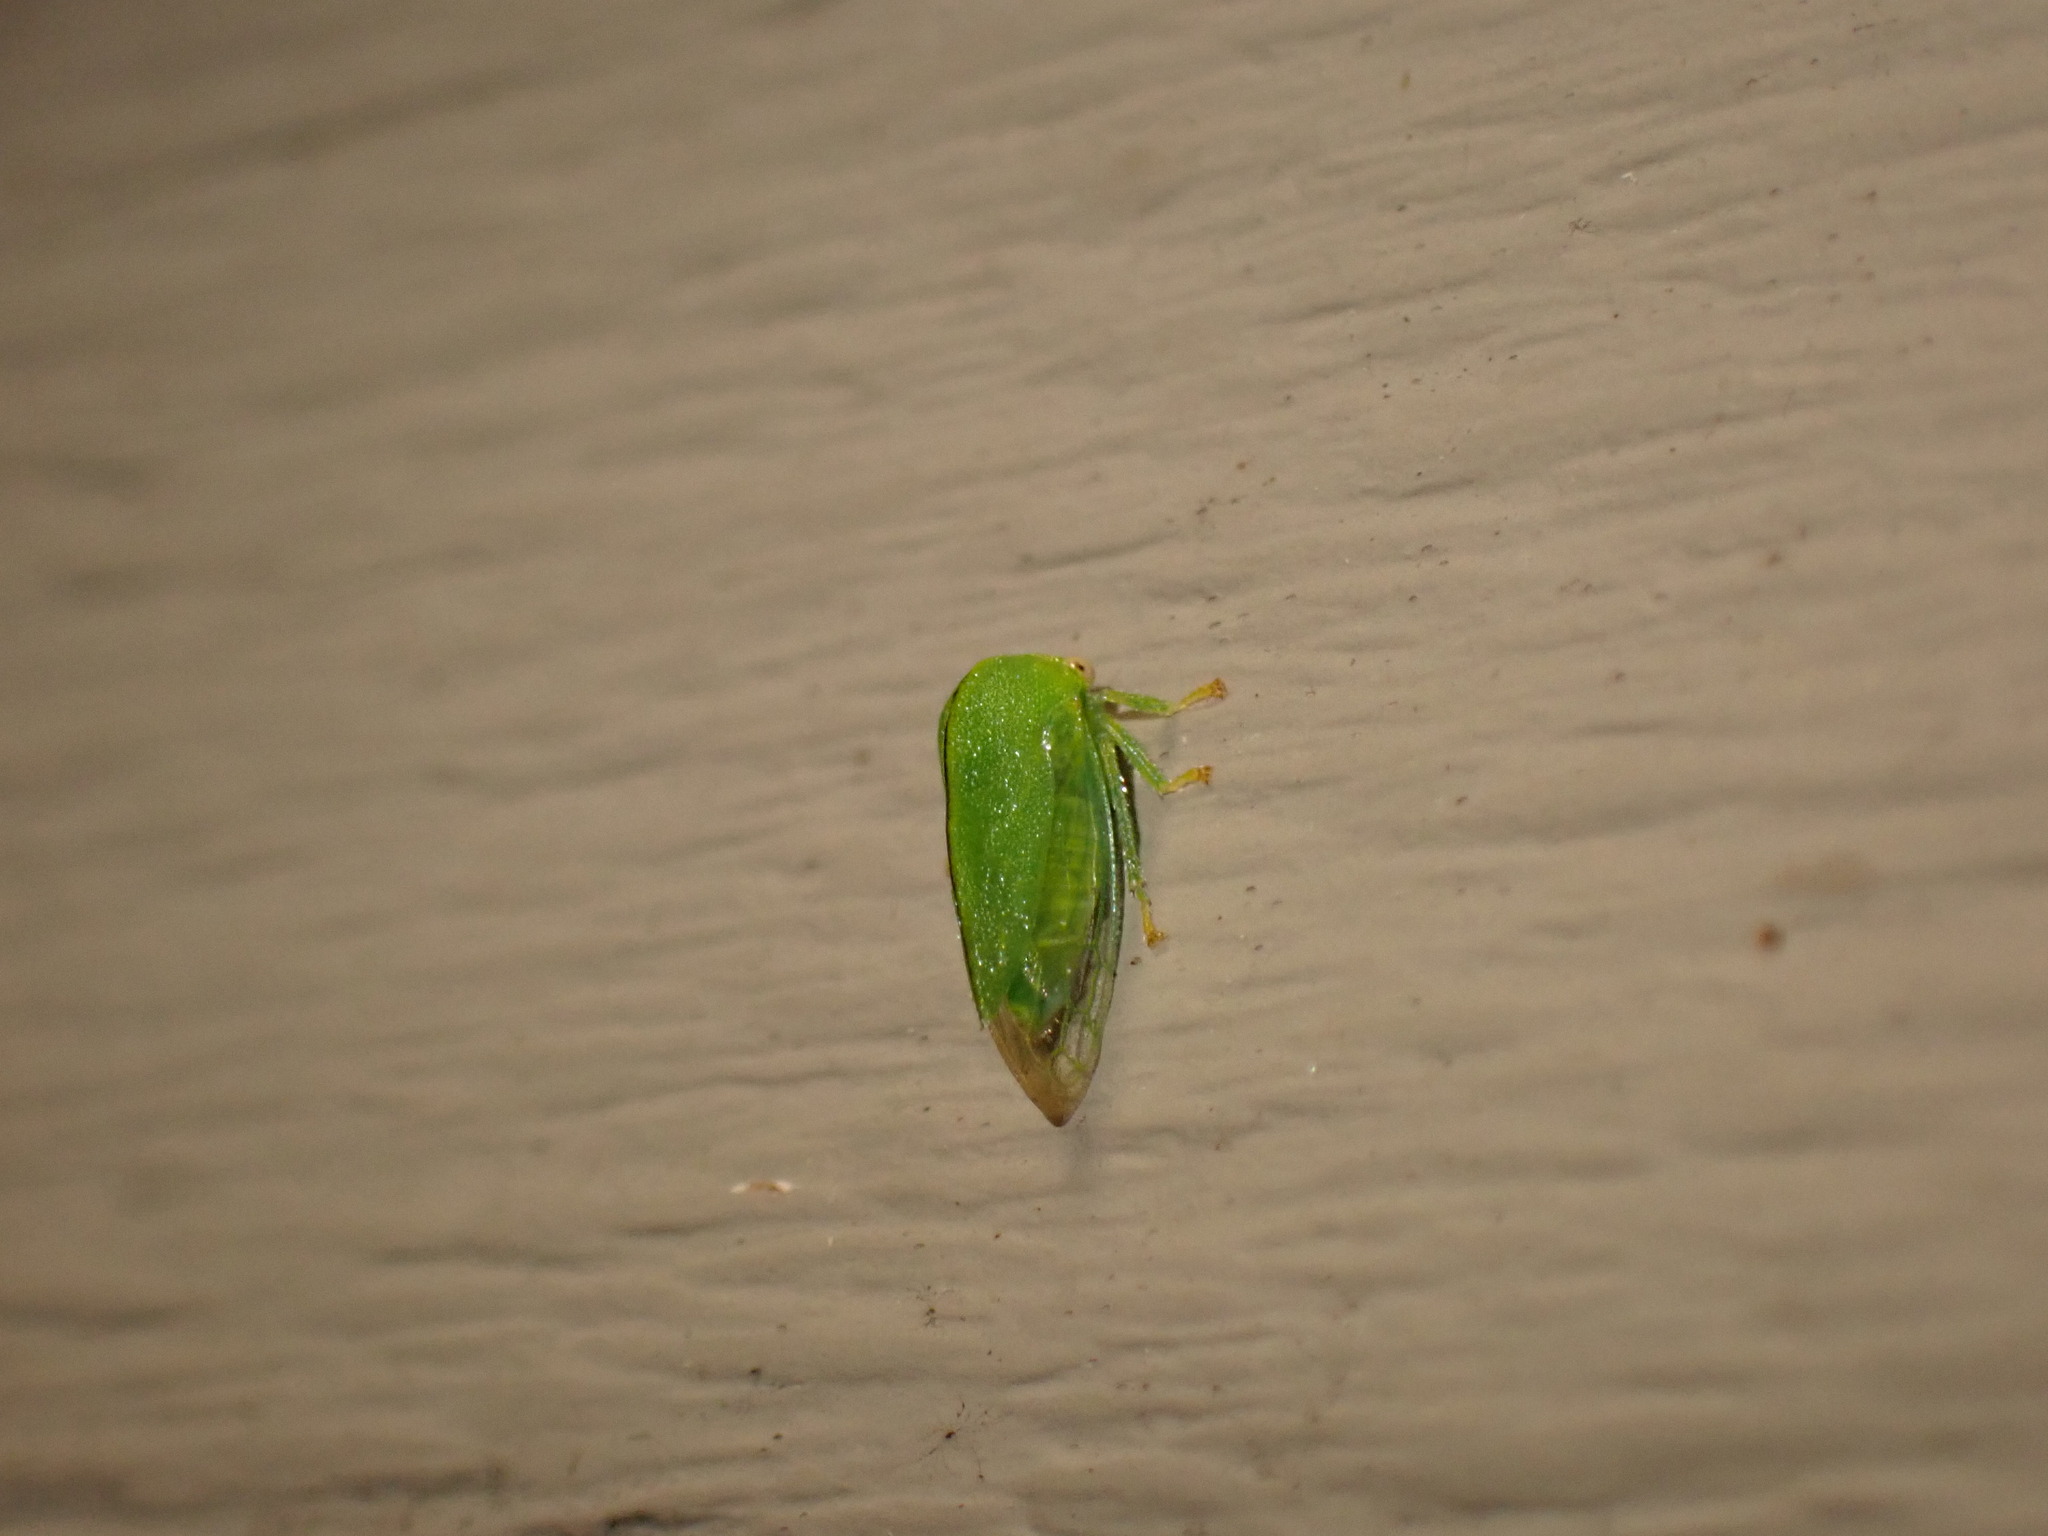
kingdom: Animalia
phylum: Arthropoda
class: Insecta
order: Hemiptera
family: Membracidae
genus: Atymna
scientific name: Atymna querci
